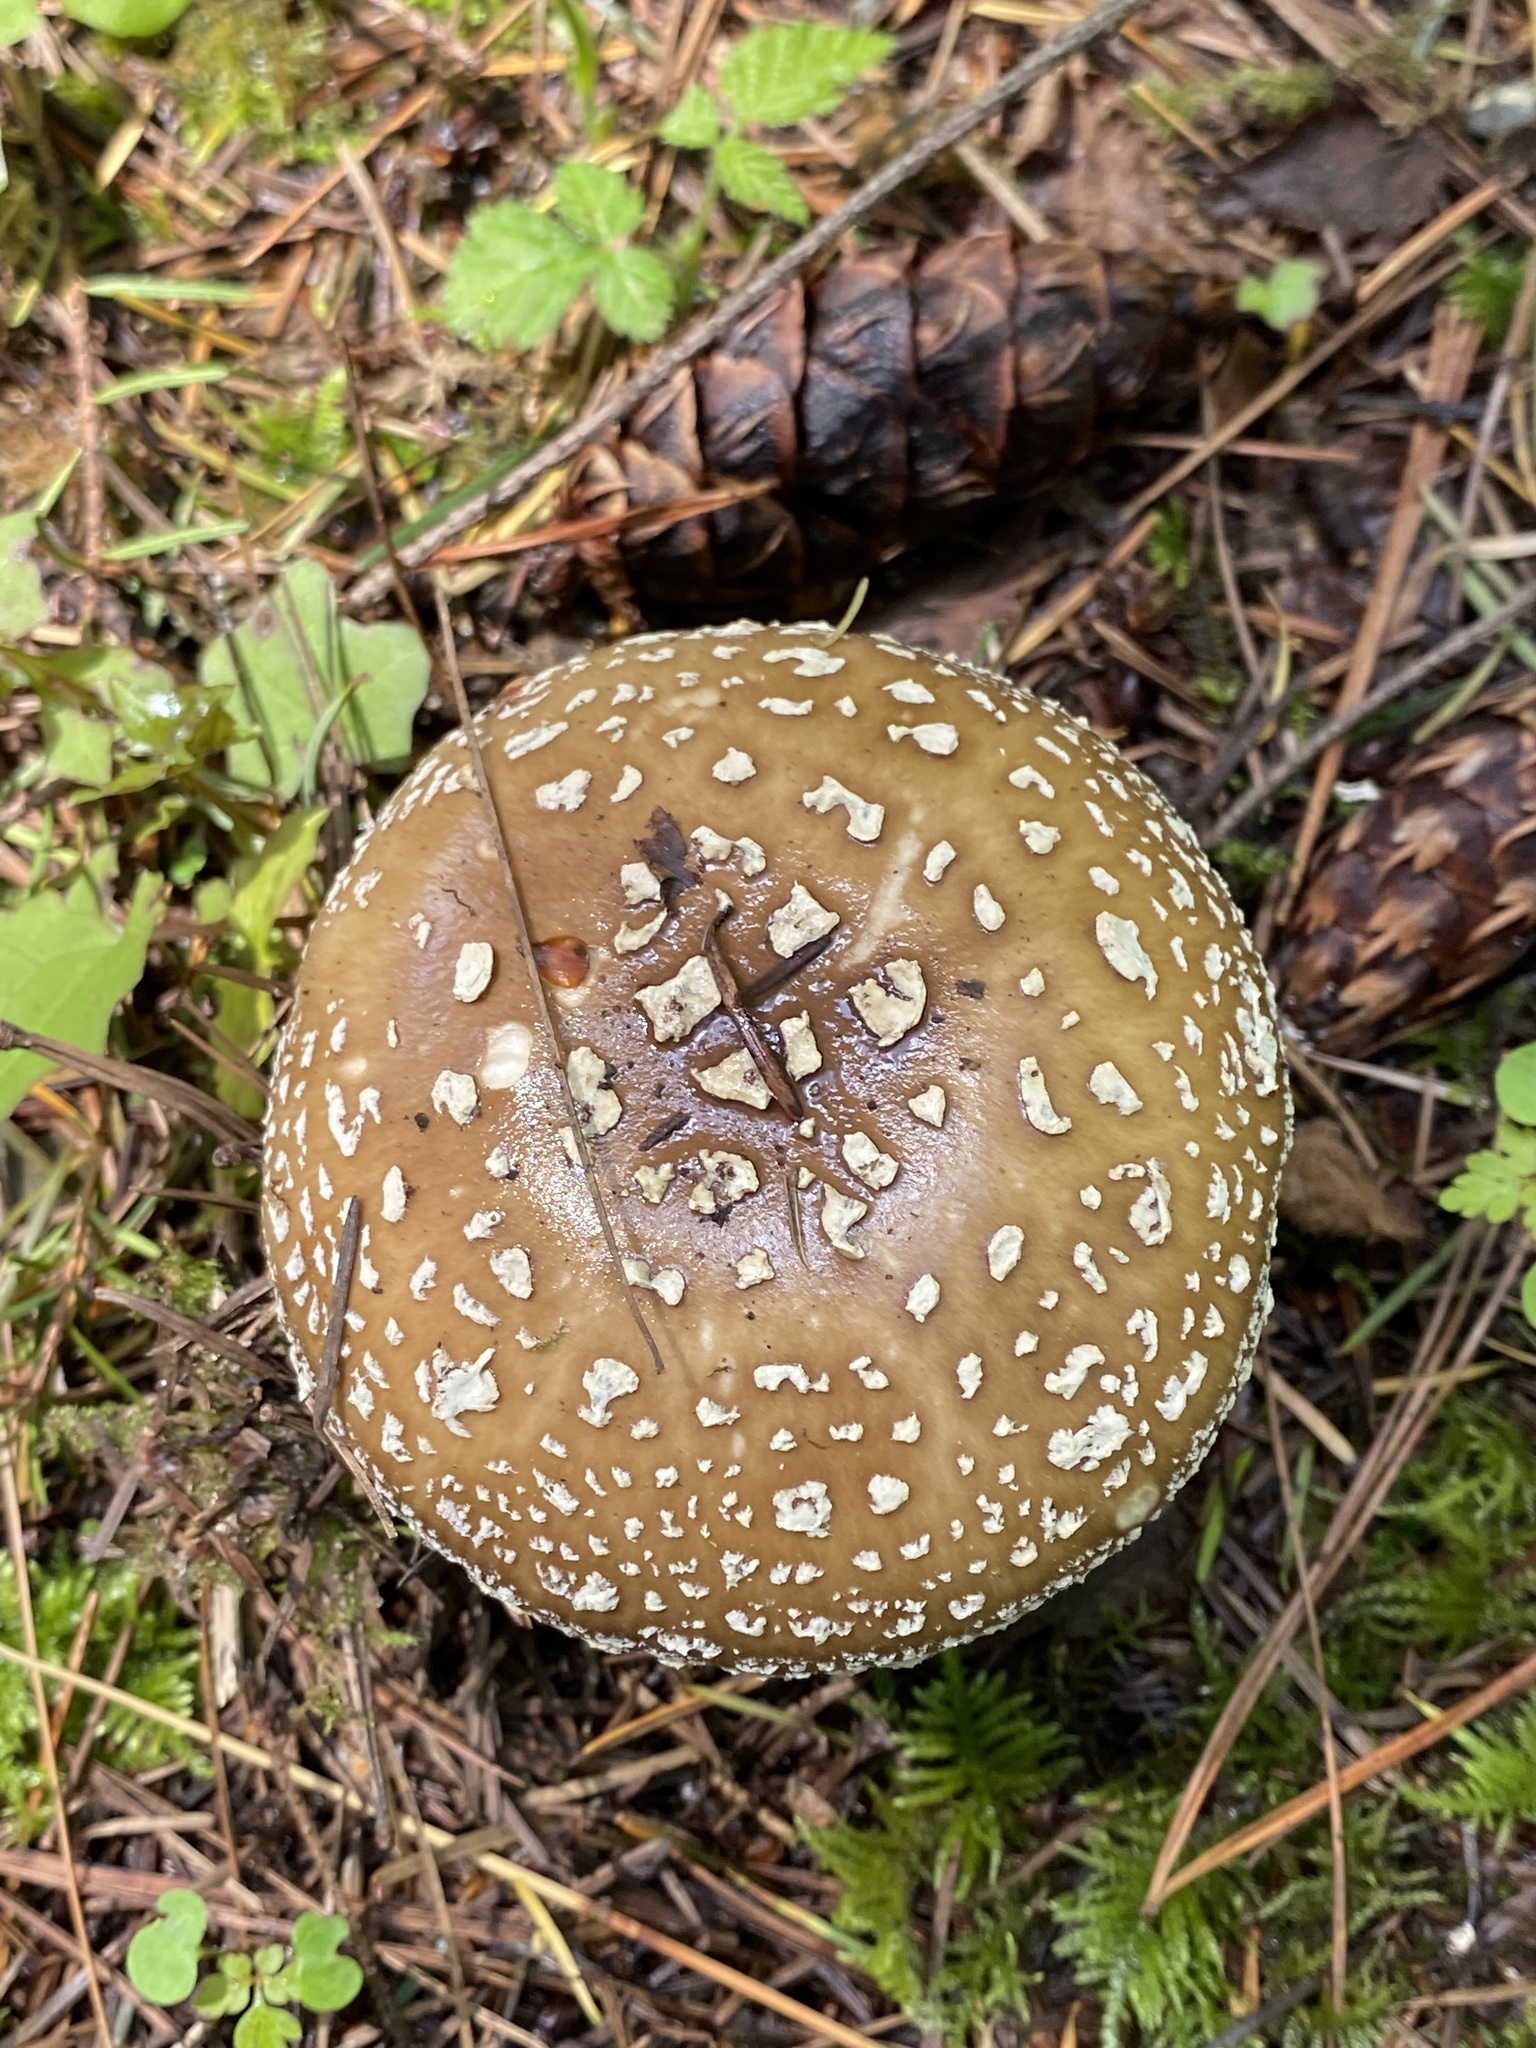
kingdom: Fungi
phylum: Basidiomycota
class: Agaricomycetes
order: Agaricales
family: Amanitaceae
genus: Amanita
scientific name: Amanita pantherinoides
